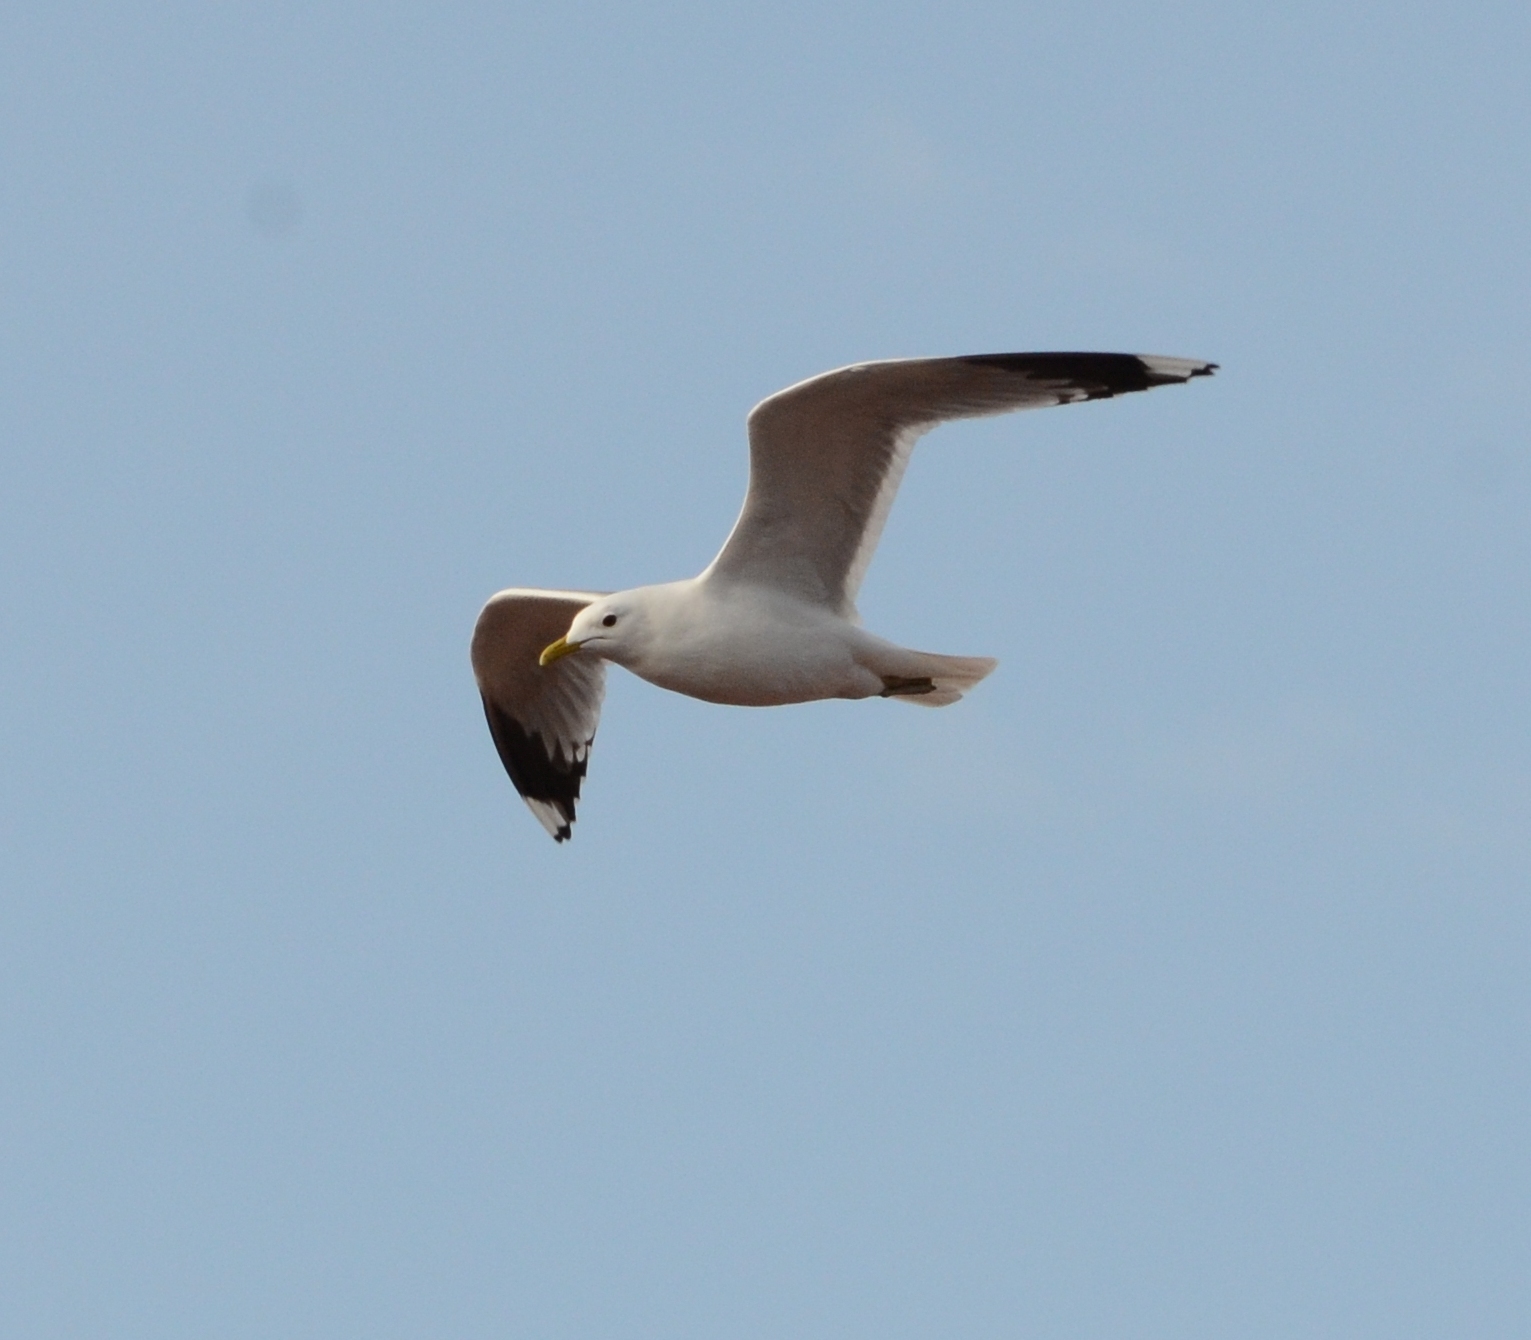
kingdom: Animalia
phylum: Chordata
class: Aves
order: Charadriiformes
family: Laridae
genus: Larus
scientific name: Larus canus
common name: Mew gull
